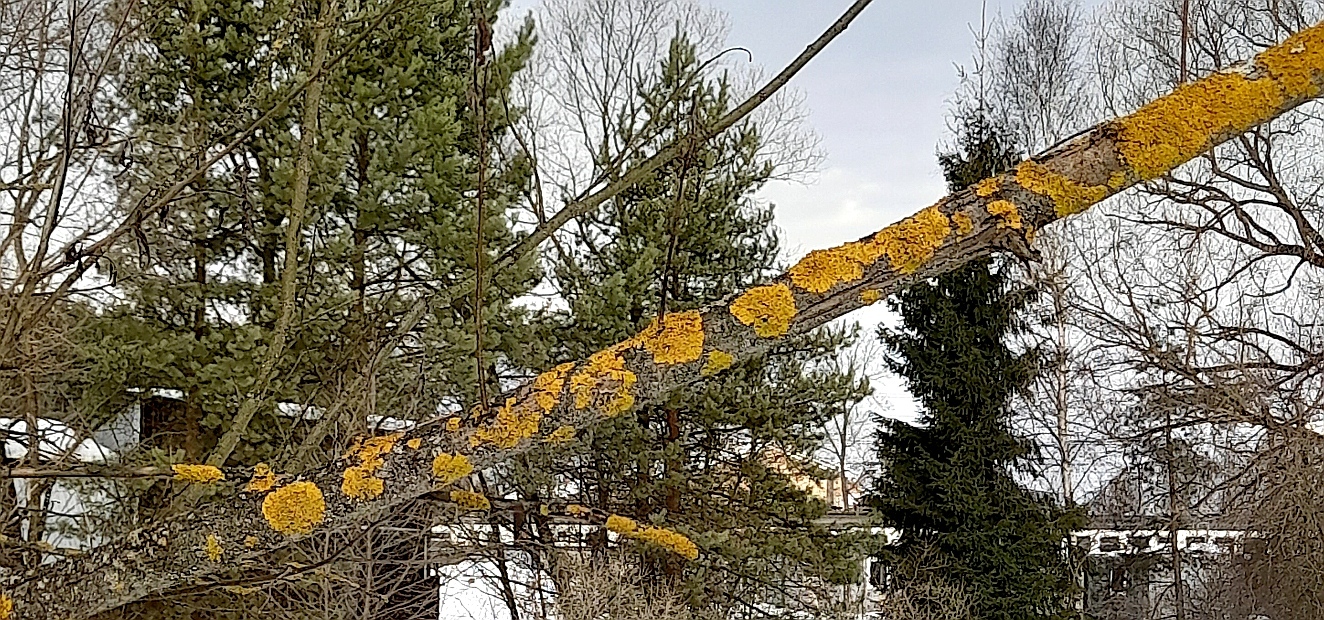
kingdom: Fungi
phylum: Ascomycota
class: Lecanoromycetes
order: Teloschistales
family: Teloschistaceae
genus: Xanthoria
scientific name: Xanthoria parietina
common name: Common orange lichen
